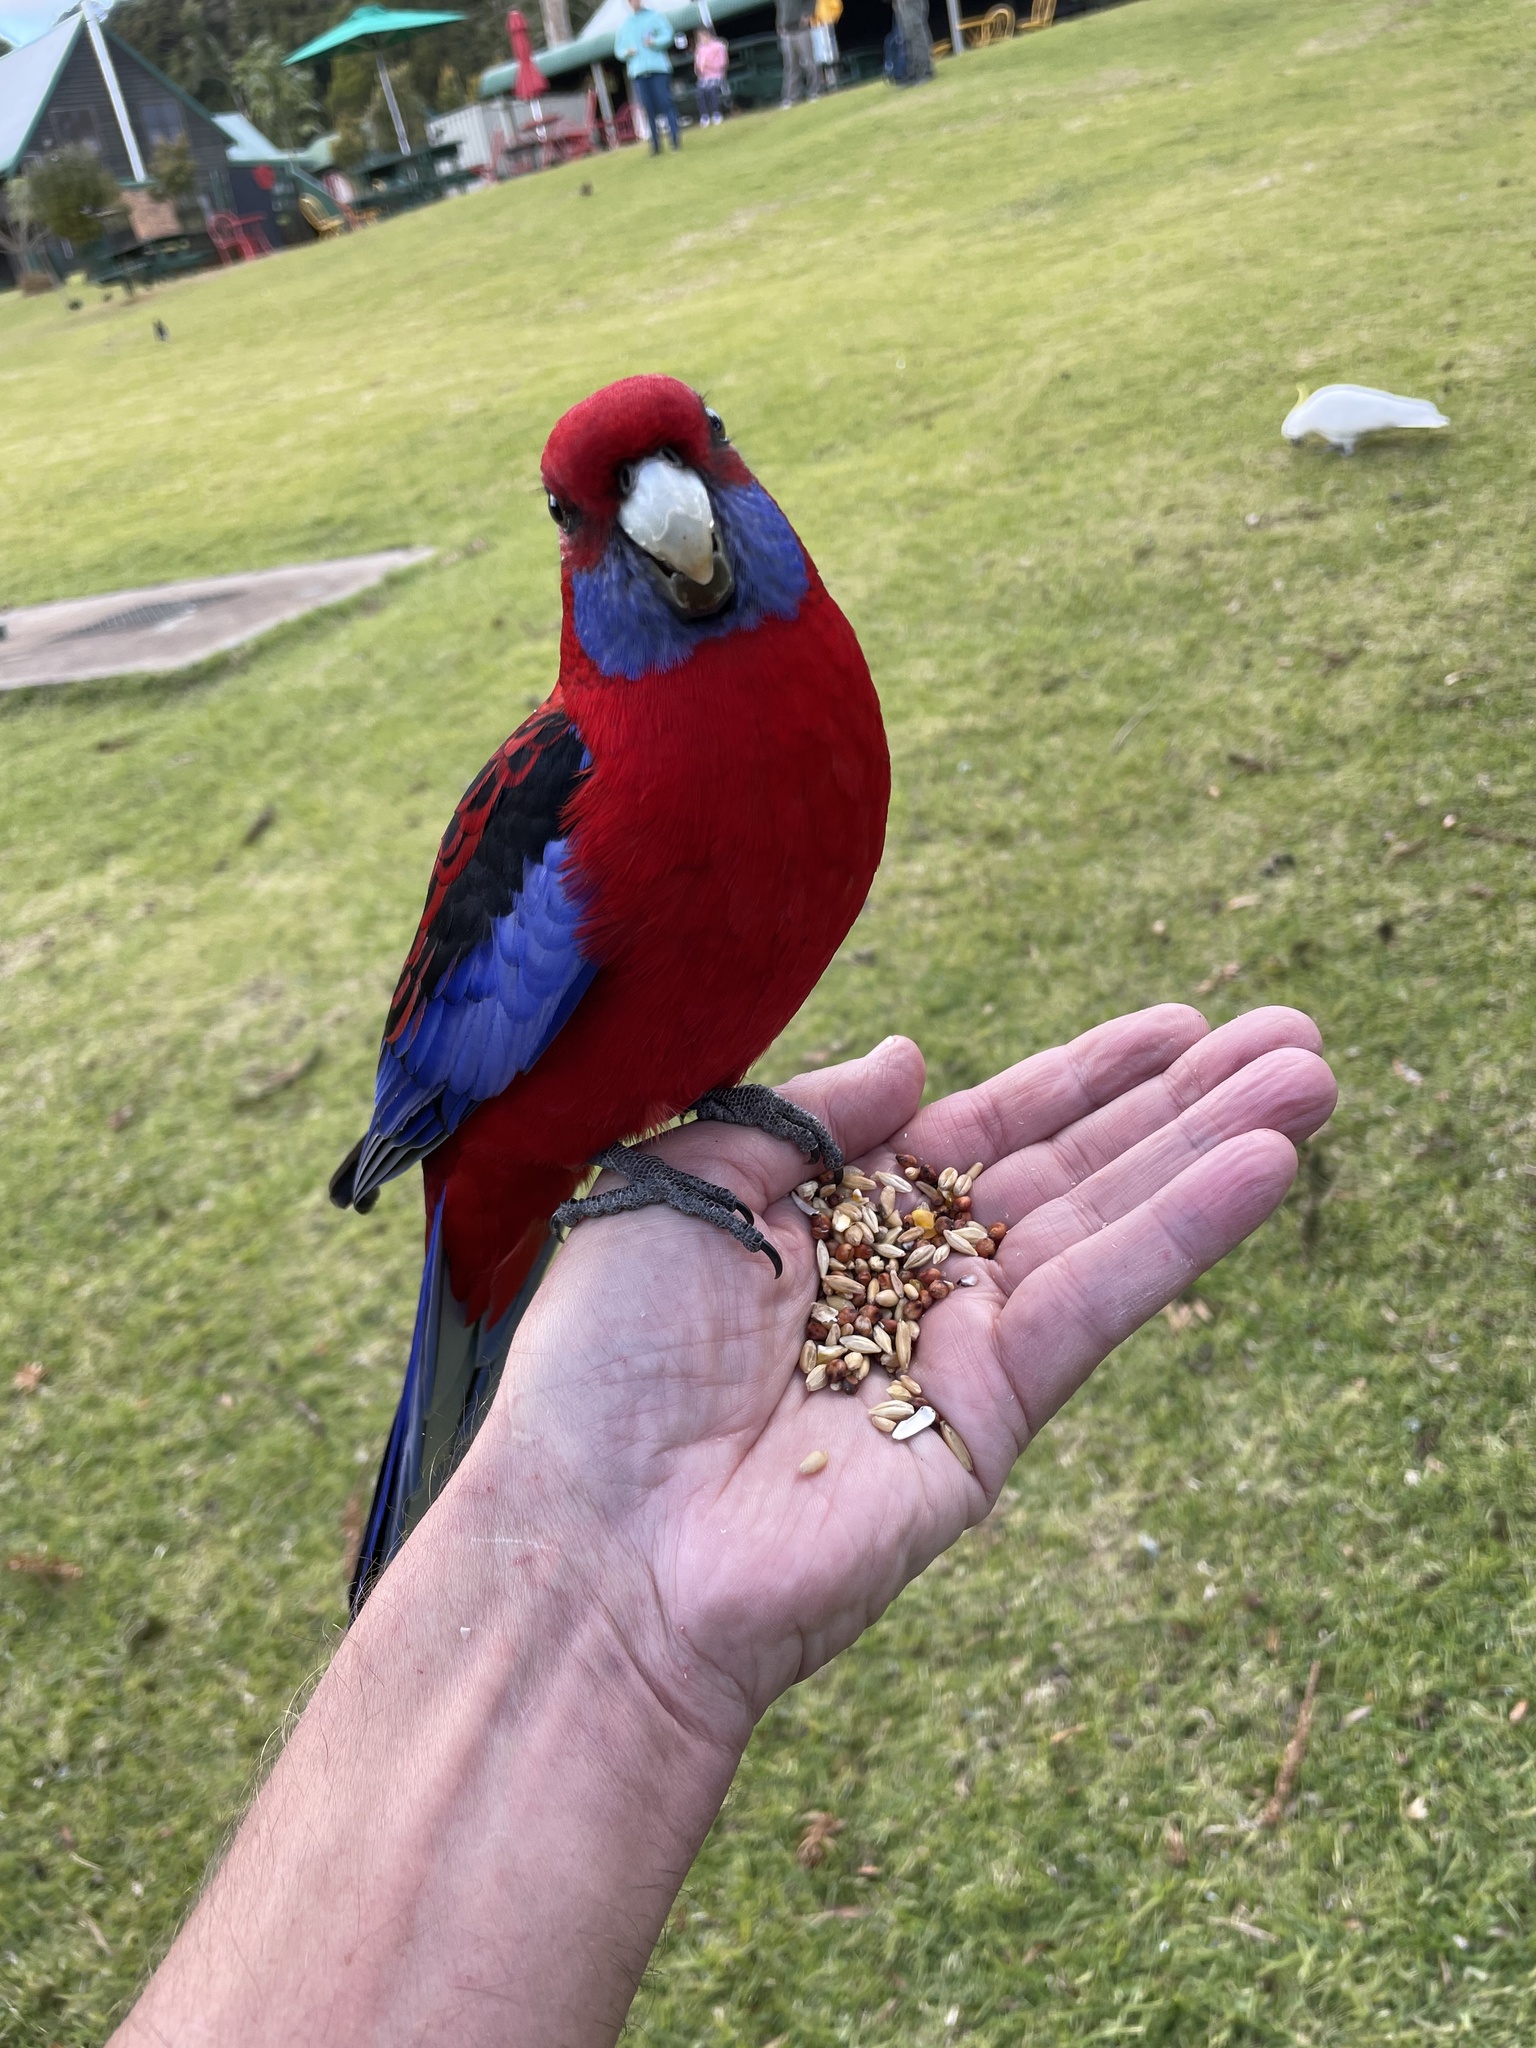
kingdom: Animalia
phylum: Chordata
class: Aves
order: Psittaciformes
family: Psittacidae
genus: Platycercus
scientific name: Platycercus elegans
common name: Crimson rosella
